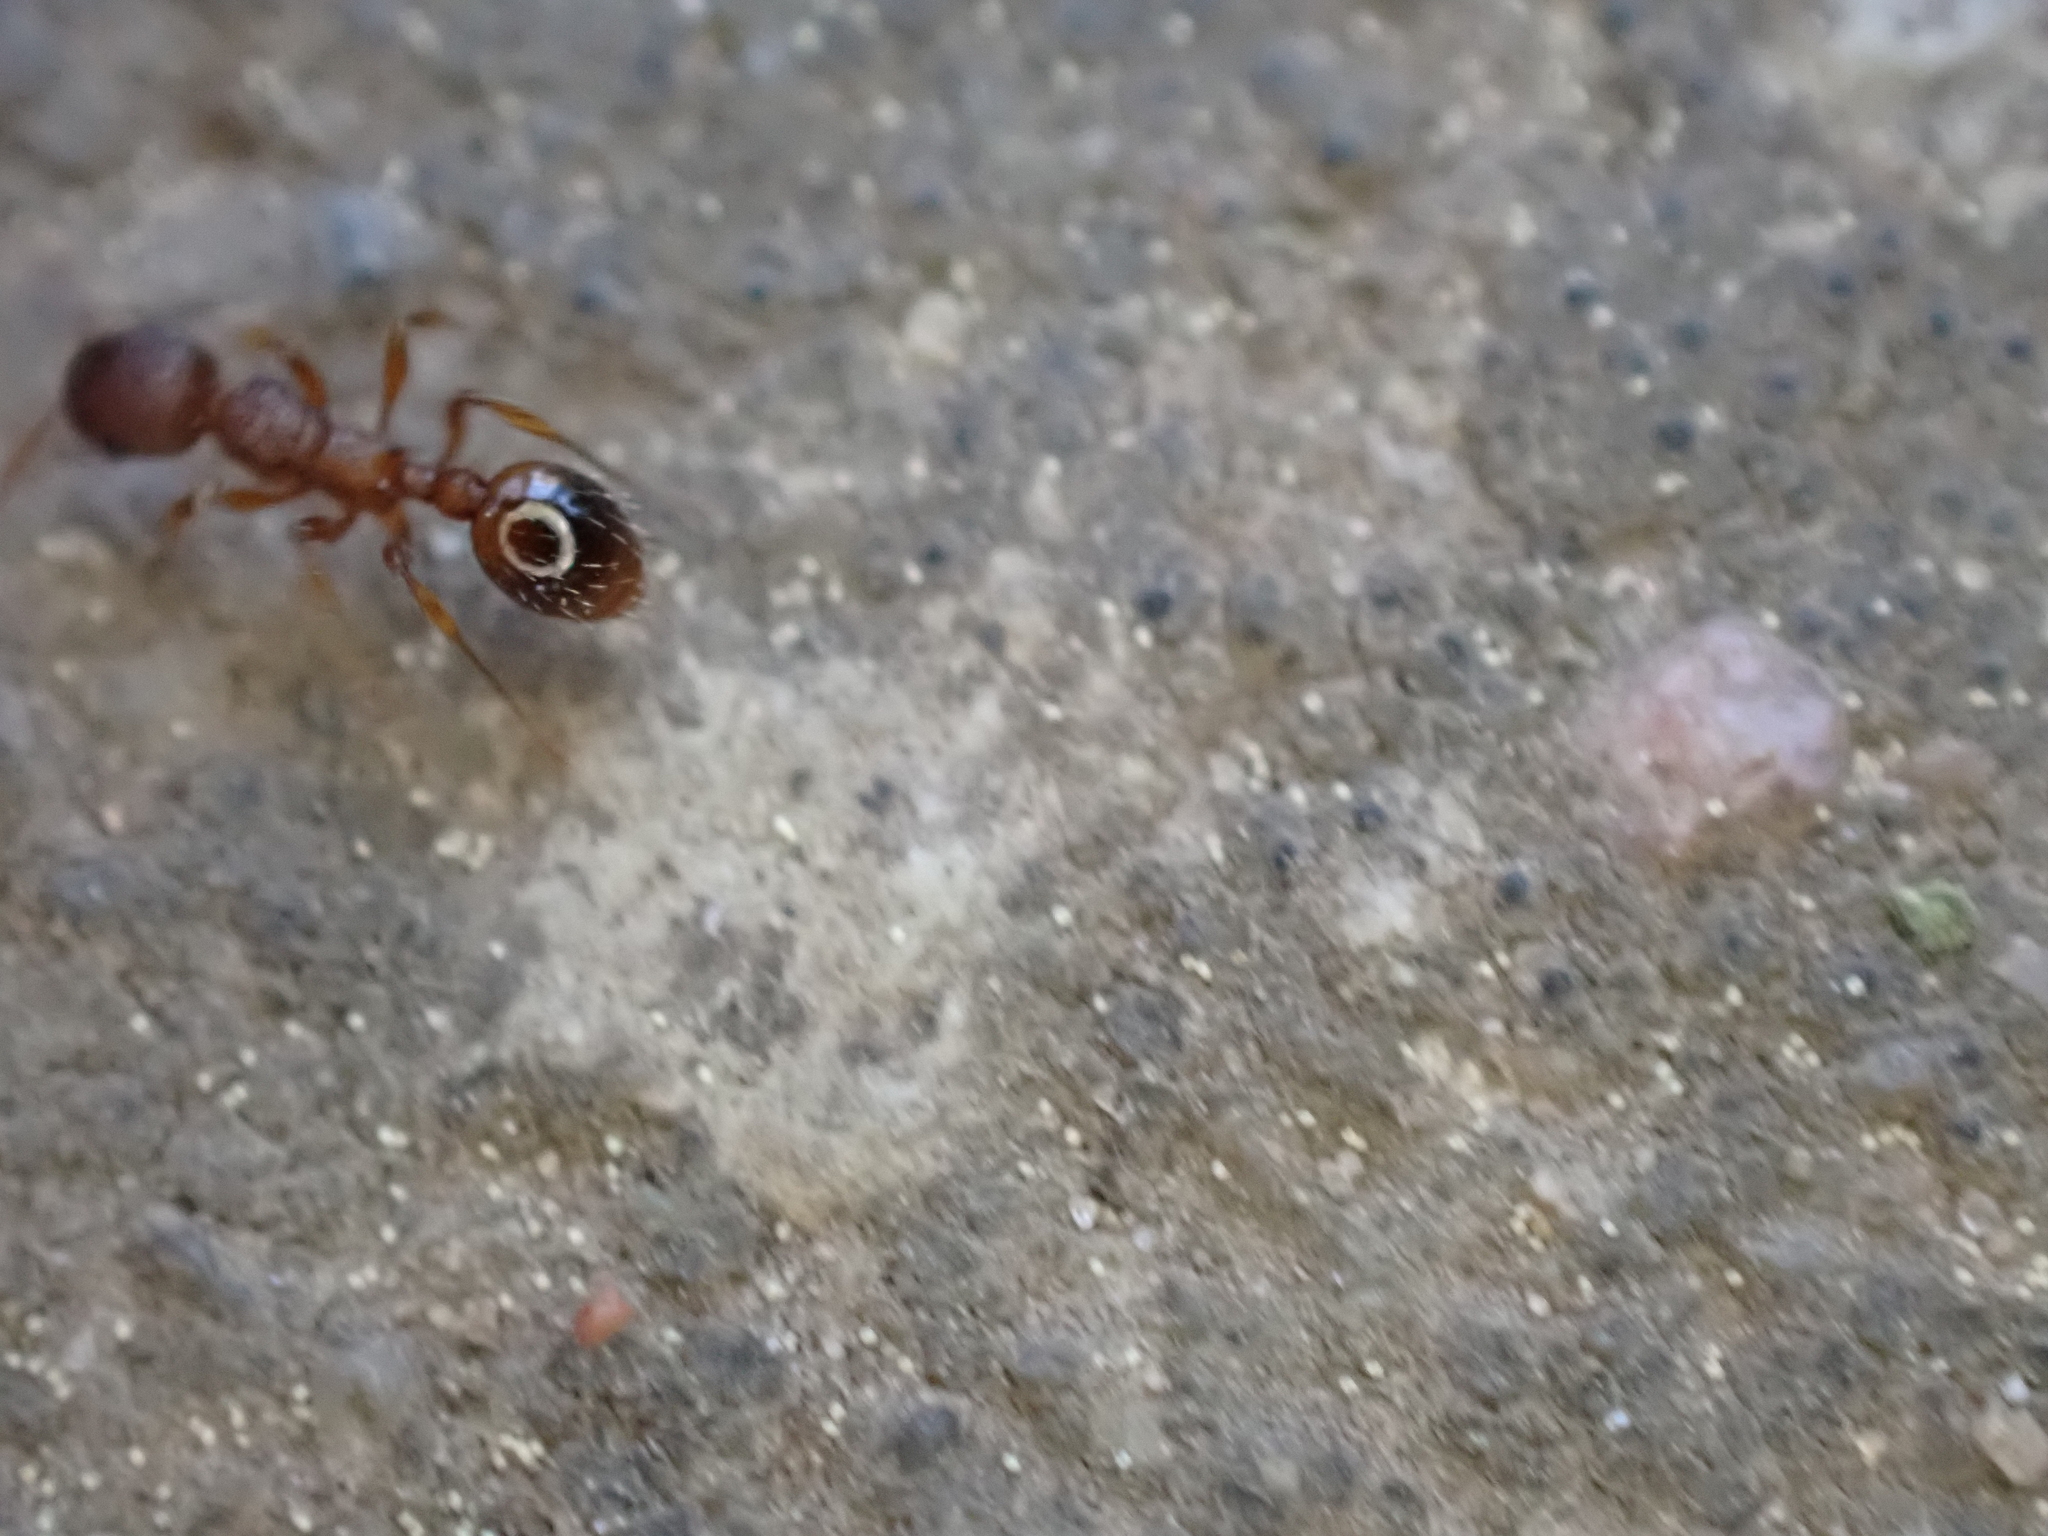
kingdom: Animalia
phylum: Arthropoda
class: Insecta
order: Hymenoptera
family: Formicidae
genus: Myrmica
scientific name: Myrmica
